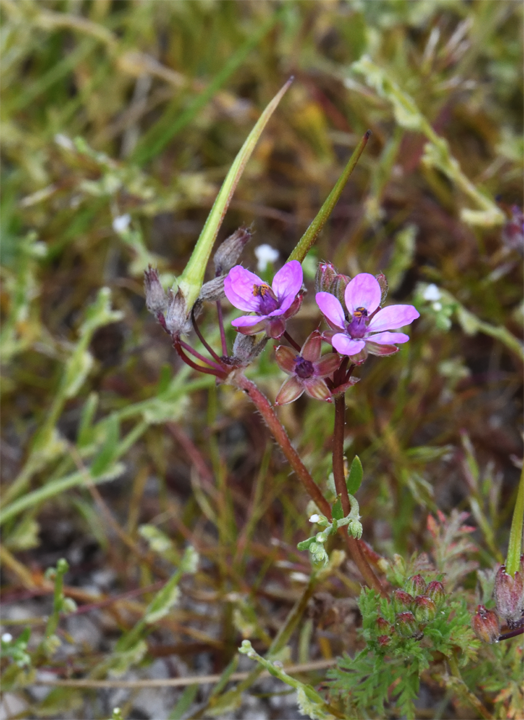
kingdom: Plantae
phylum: Tracheophyta
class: Magnoliopsida
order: Geraniales
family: Geraniaceae
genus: Erodium
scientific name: Erodium cicutarium
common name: Common stork's-bill
